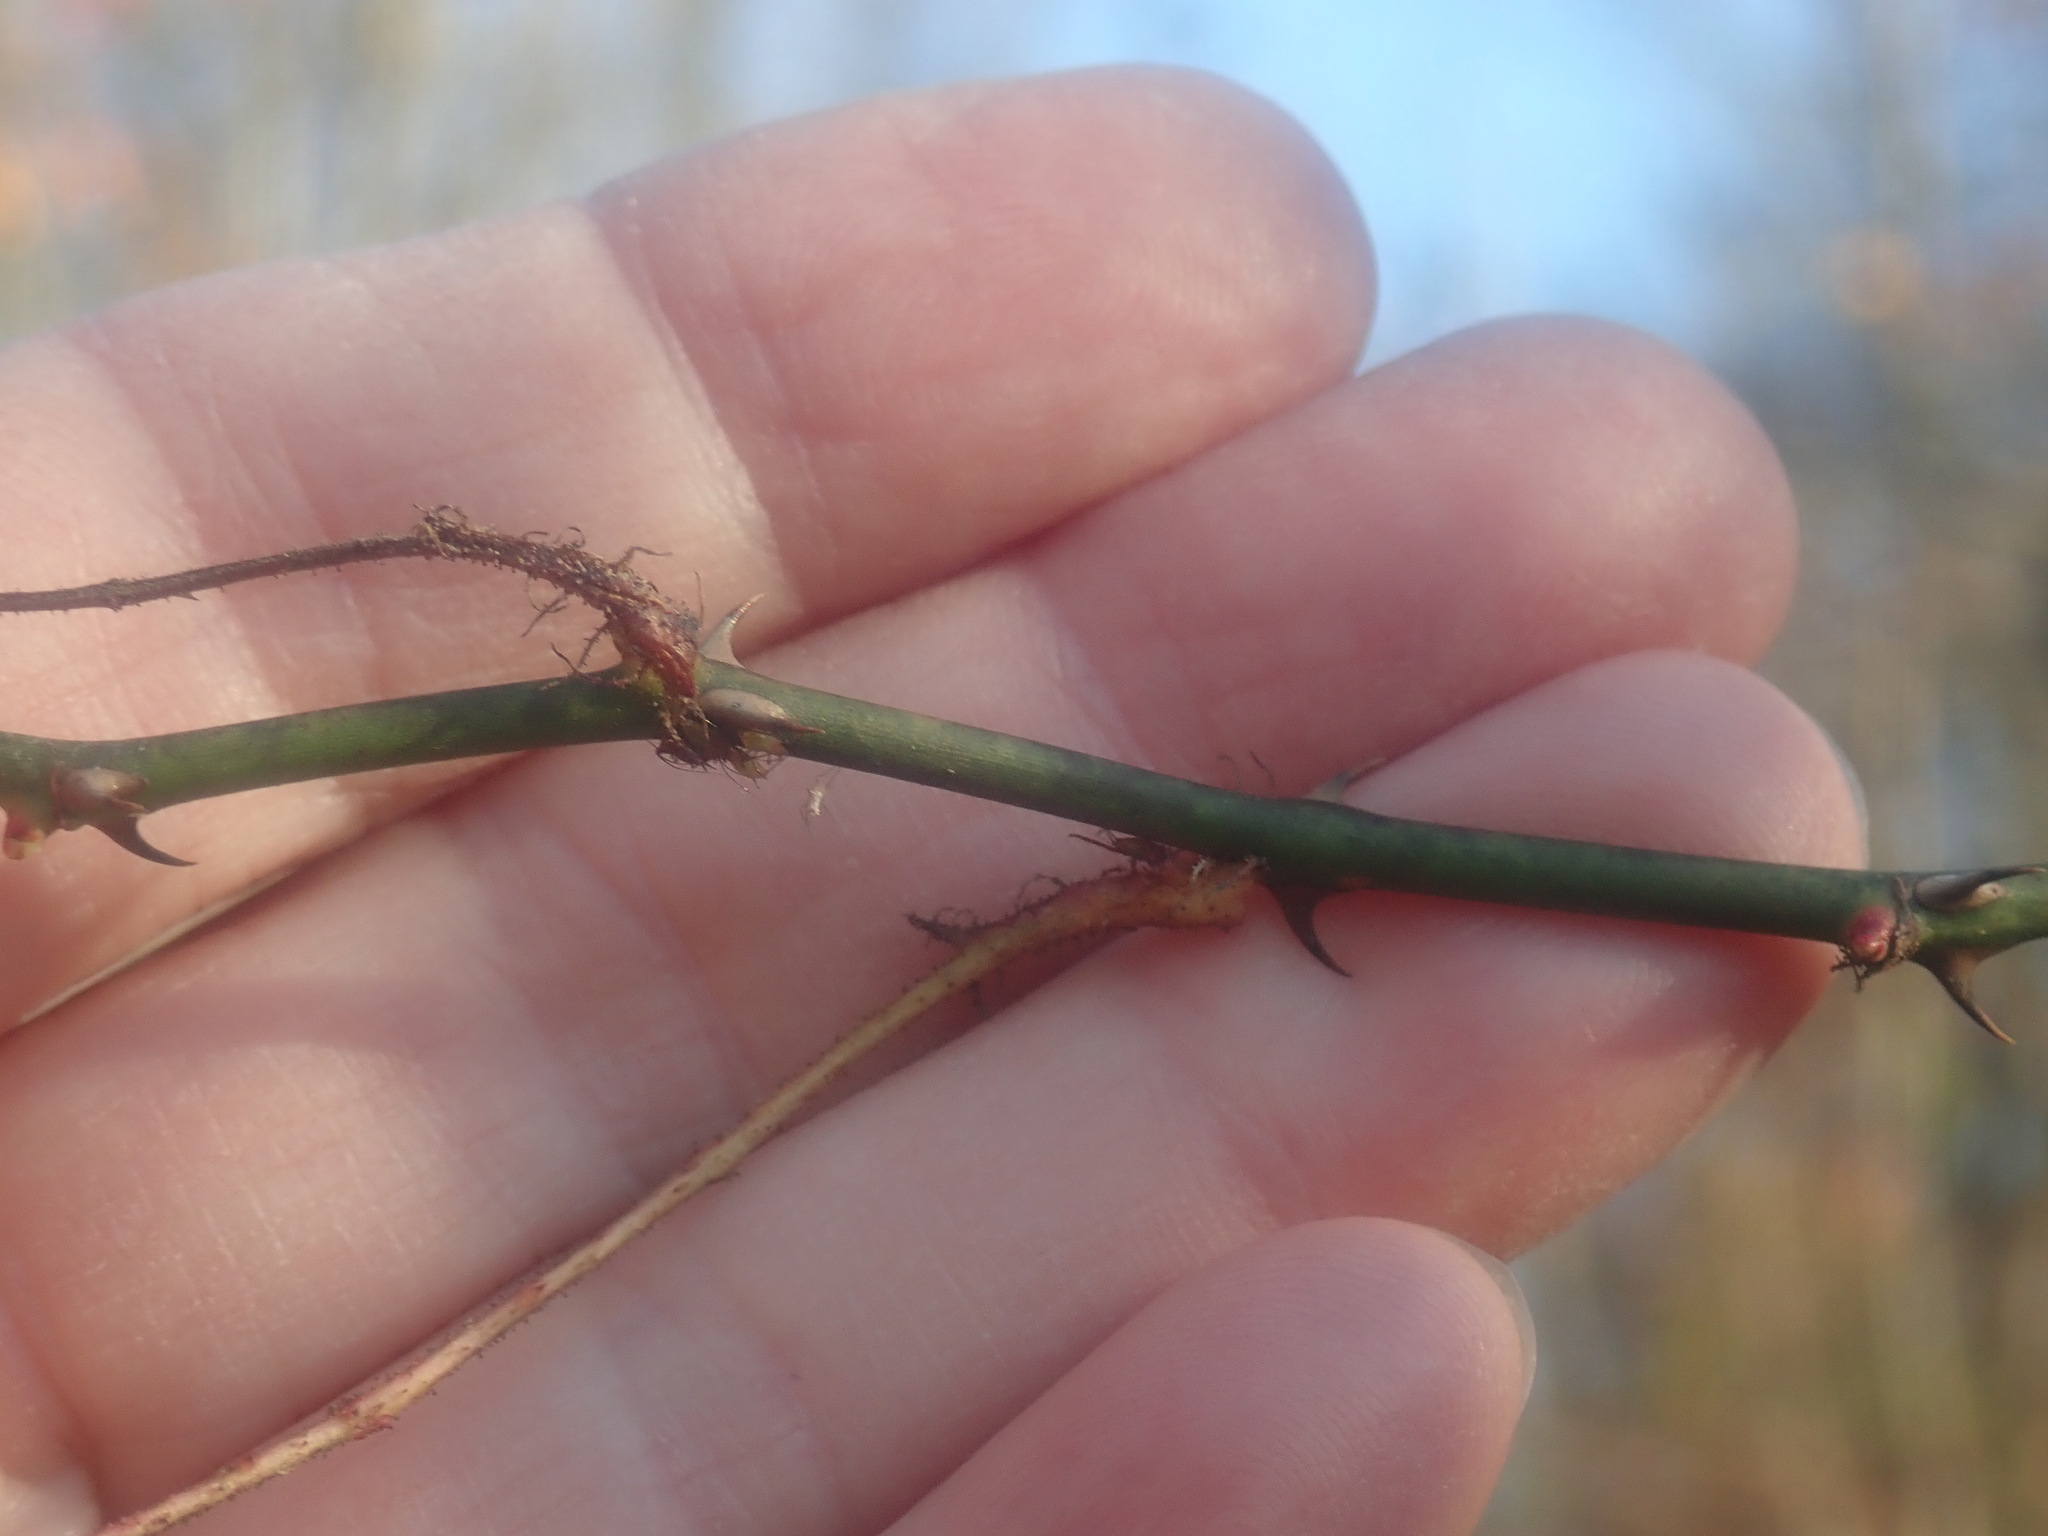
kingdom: Plantae
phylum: Tracheophyta
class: Magnoliopsida
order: Rosales
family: Rosaceae
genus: Rosa
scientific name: Rosa multiflora
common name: Multiflora rose
